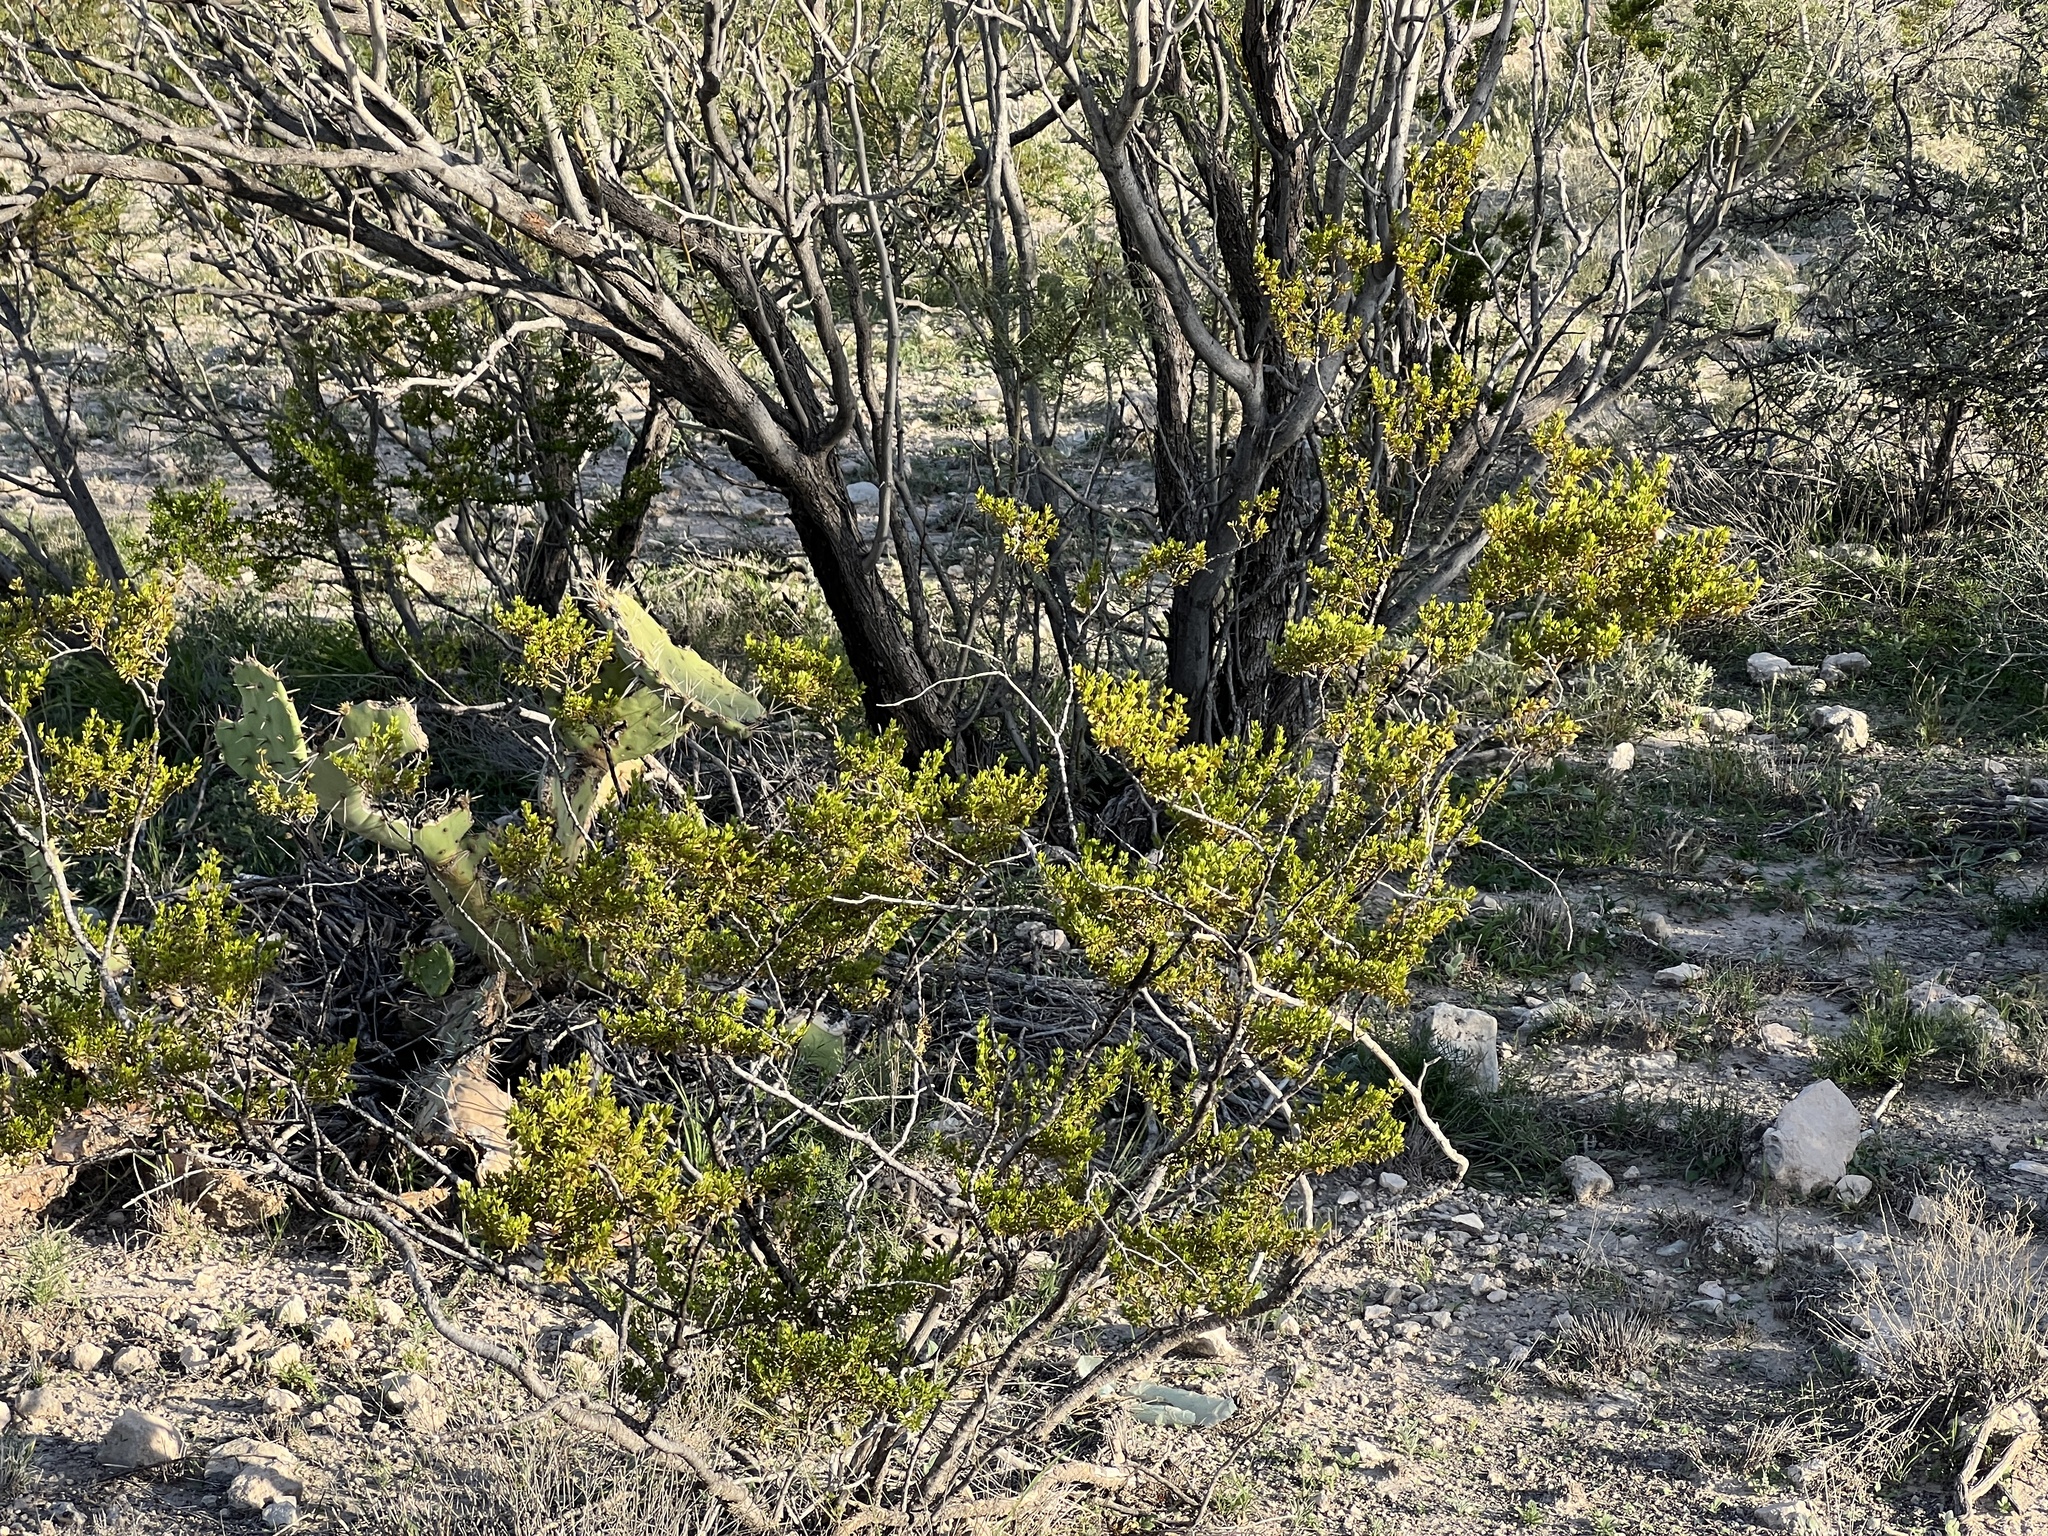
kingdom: Plantae
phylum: Tracheophyta
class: Magnoliopsida
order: Zygophyllales
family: Zygophyllaceae
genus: Larrea
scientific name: Larrea tridentata
